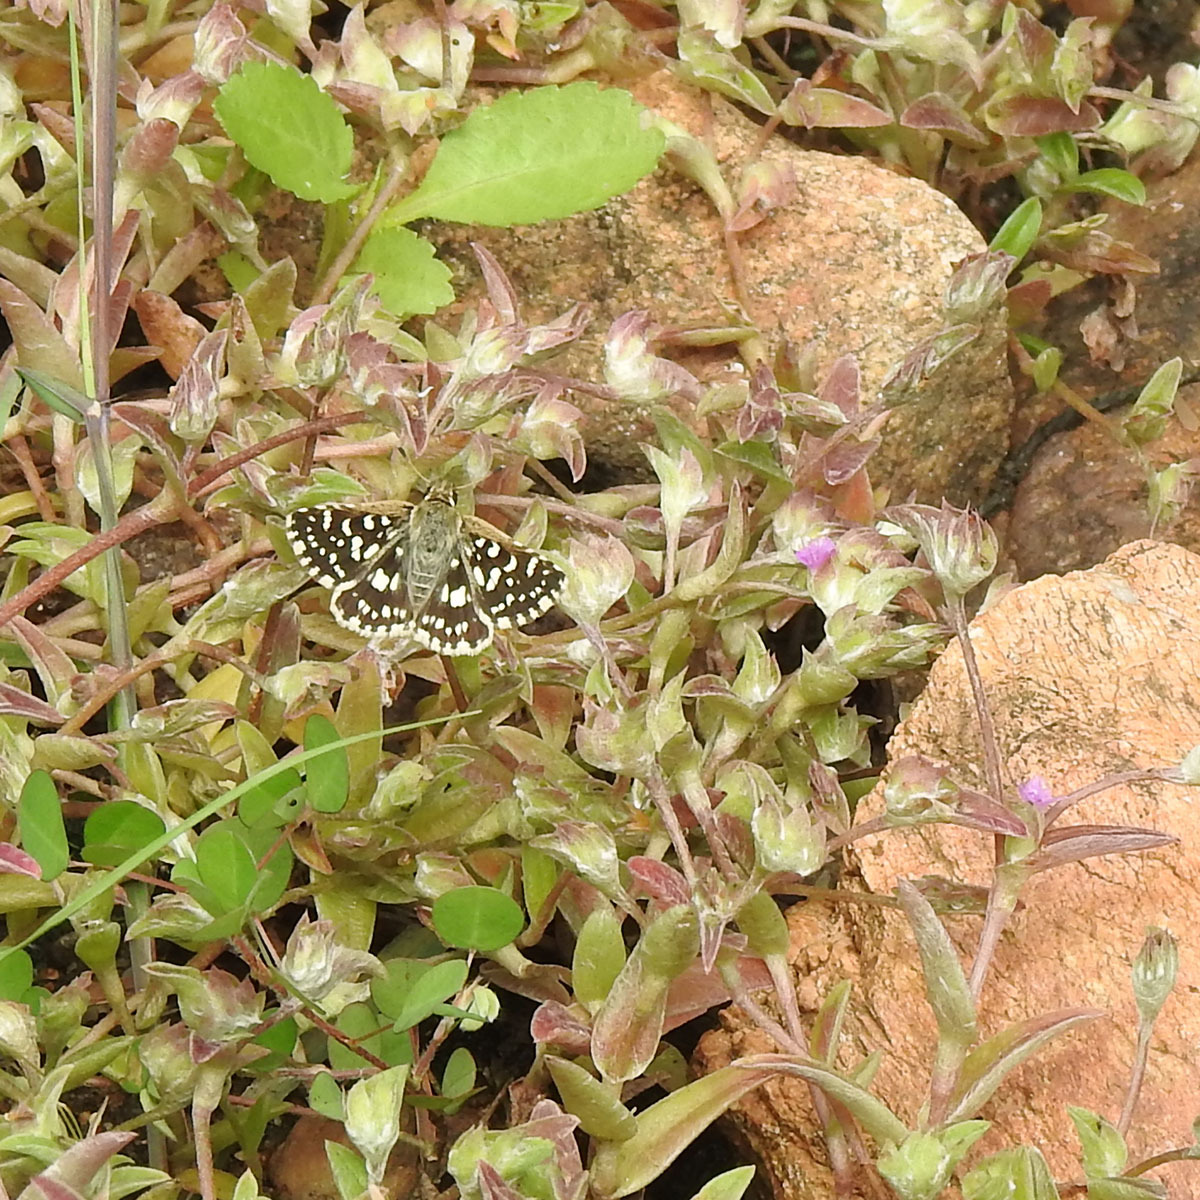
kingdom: Animalia
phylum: Arthropoda
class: Insecta
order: Lepidoptera
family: Hesperiidae
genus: Spialia
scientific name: Spialia galba
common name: Indian skipper
